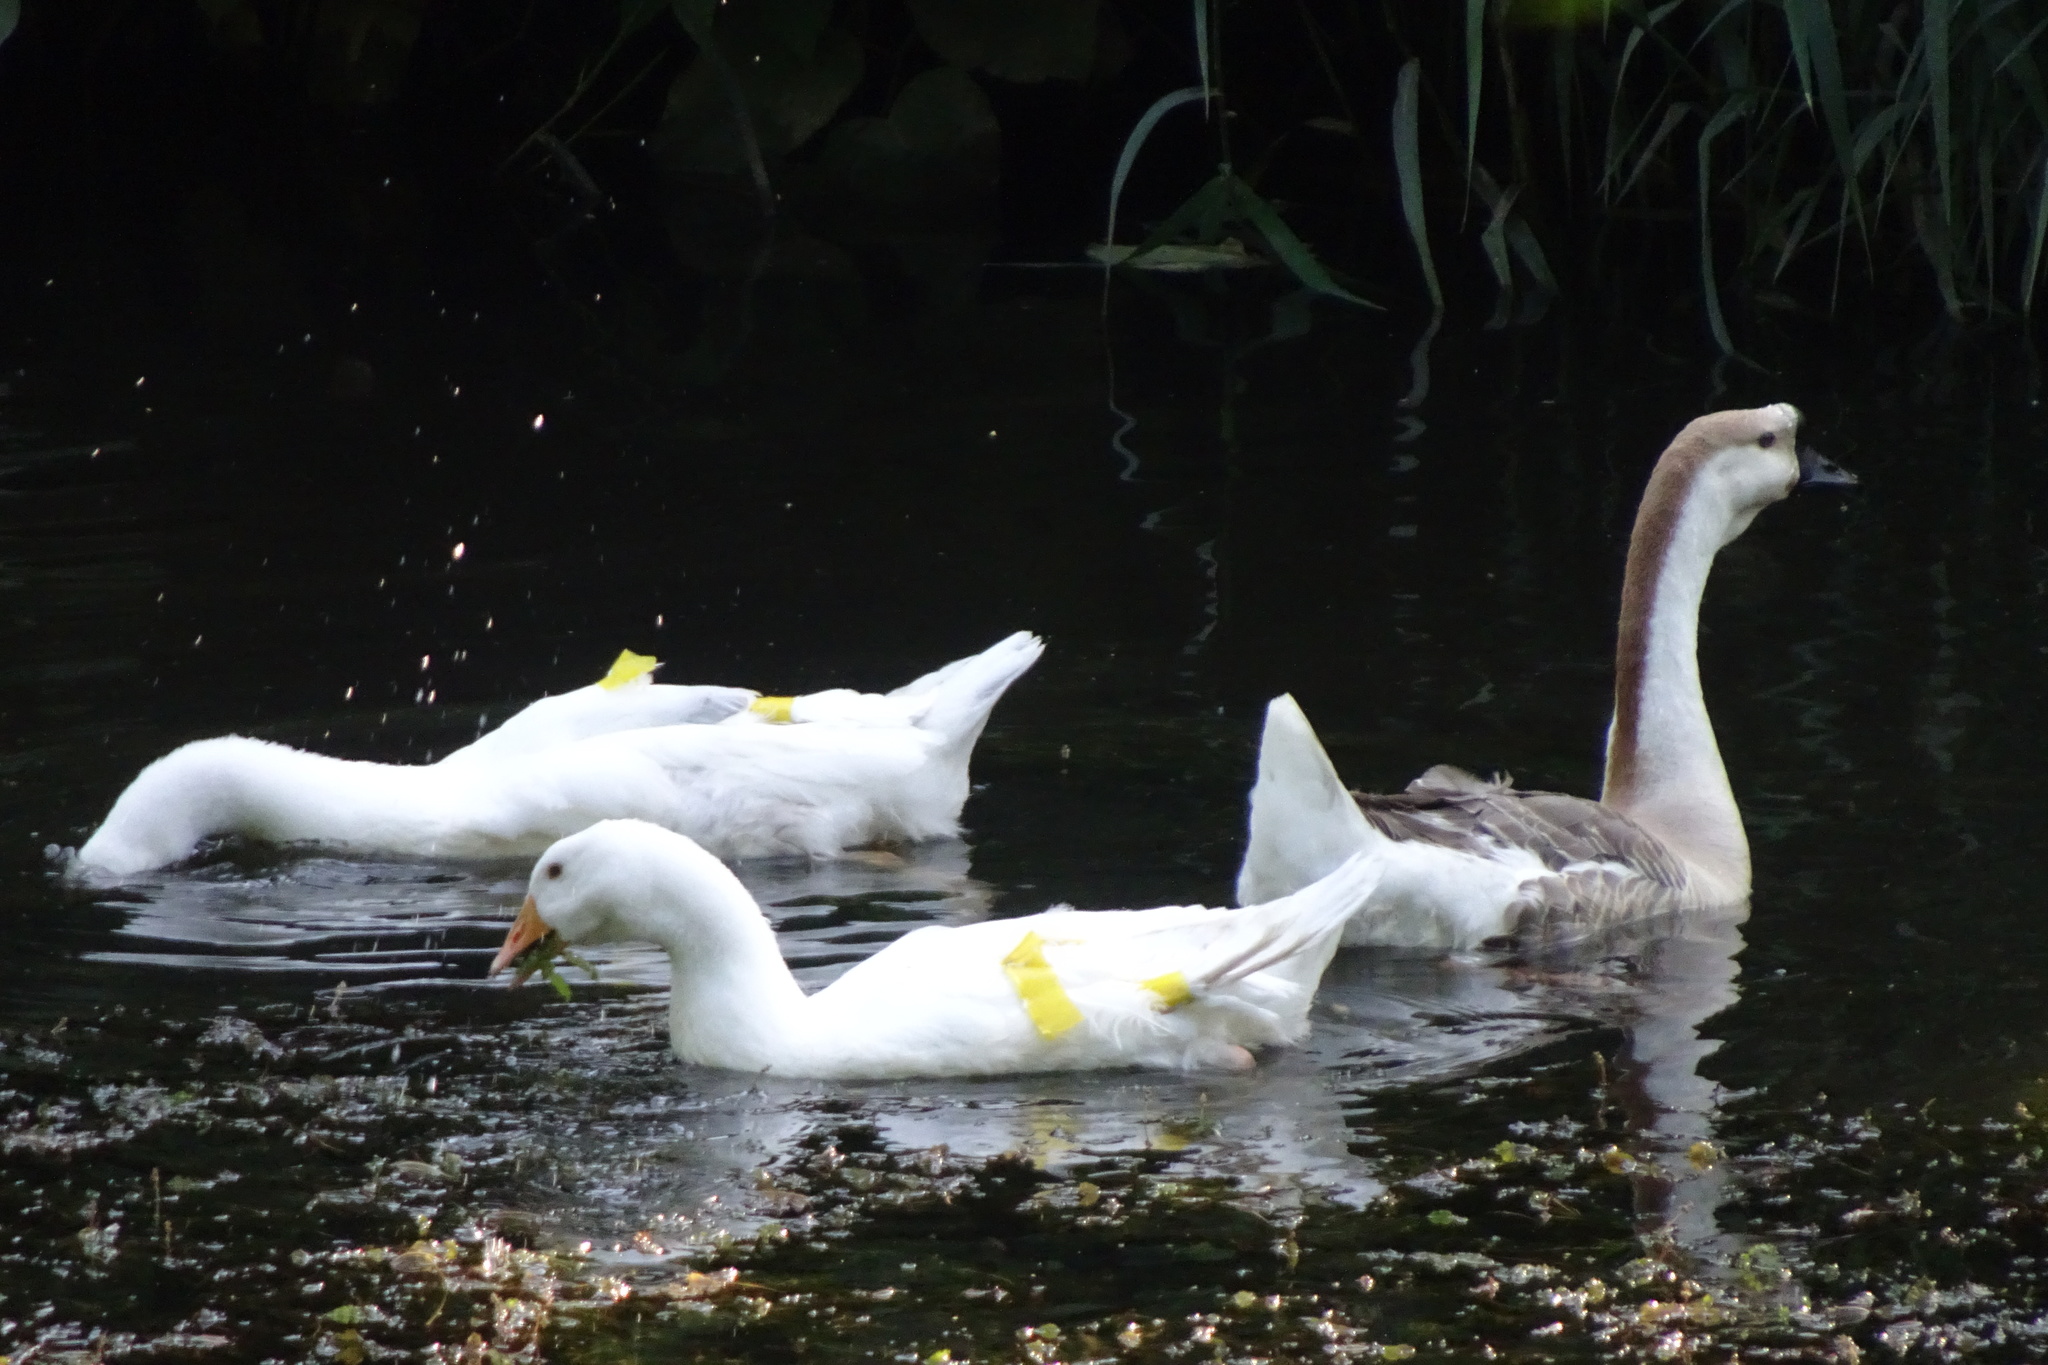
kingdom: Animalia
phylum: Chordata
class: Aves
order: Anseriformes
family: Anatidae
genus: Anser
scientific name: Anser cygnoides
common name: Swan goose
